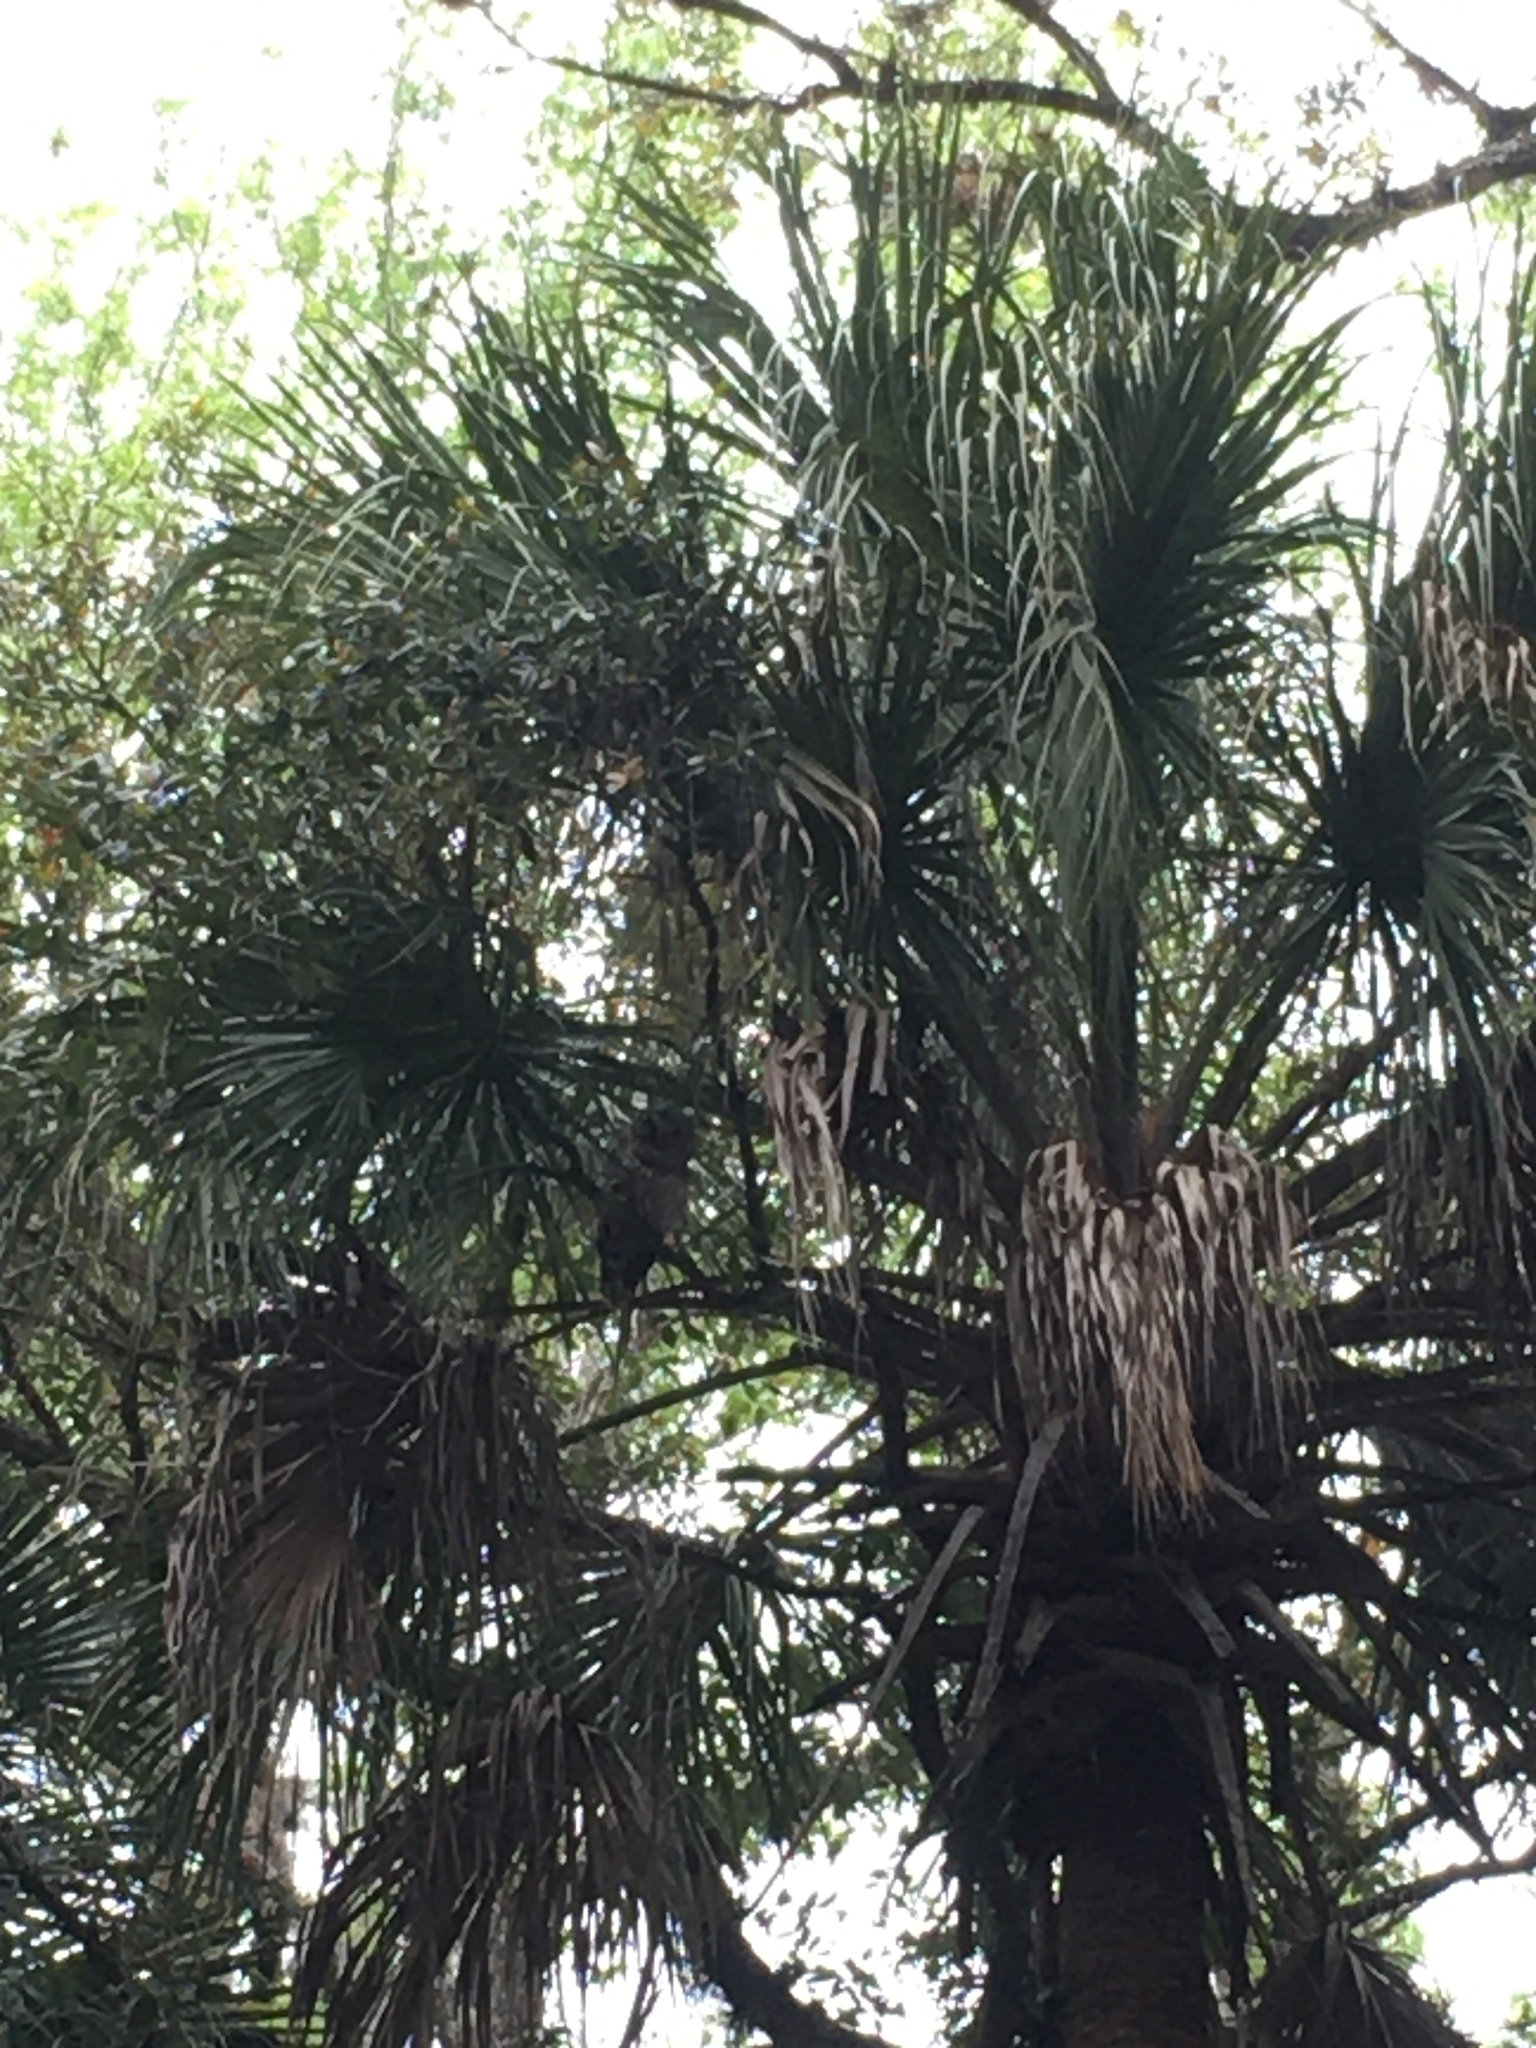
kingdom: Animalia
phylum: Chordata
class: Aves
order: Strigiformes
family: Strigidae
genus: Strix
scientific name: Strix varia
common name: Barred owl
